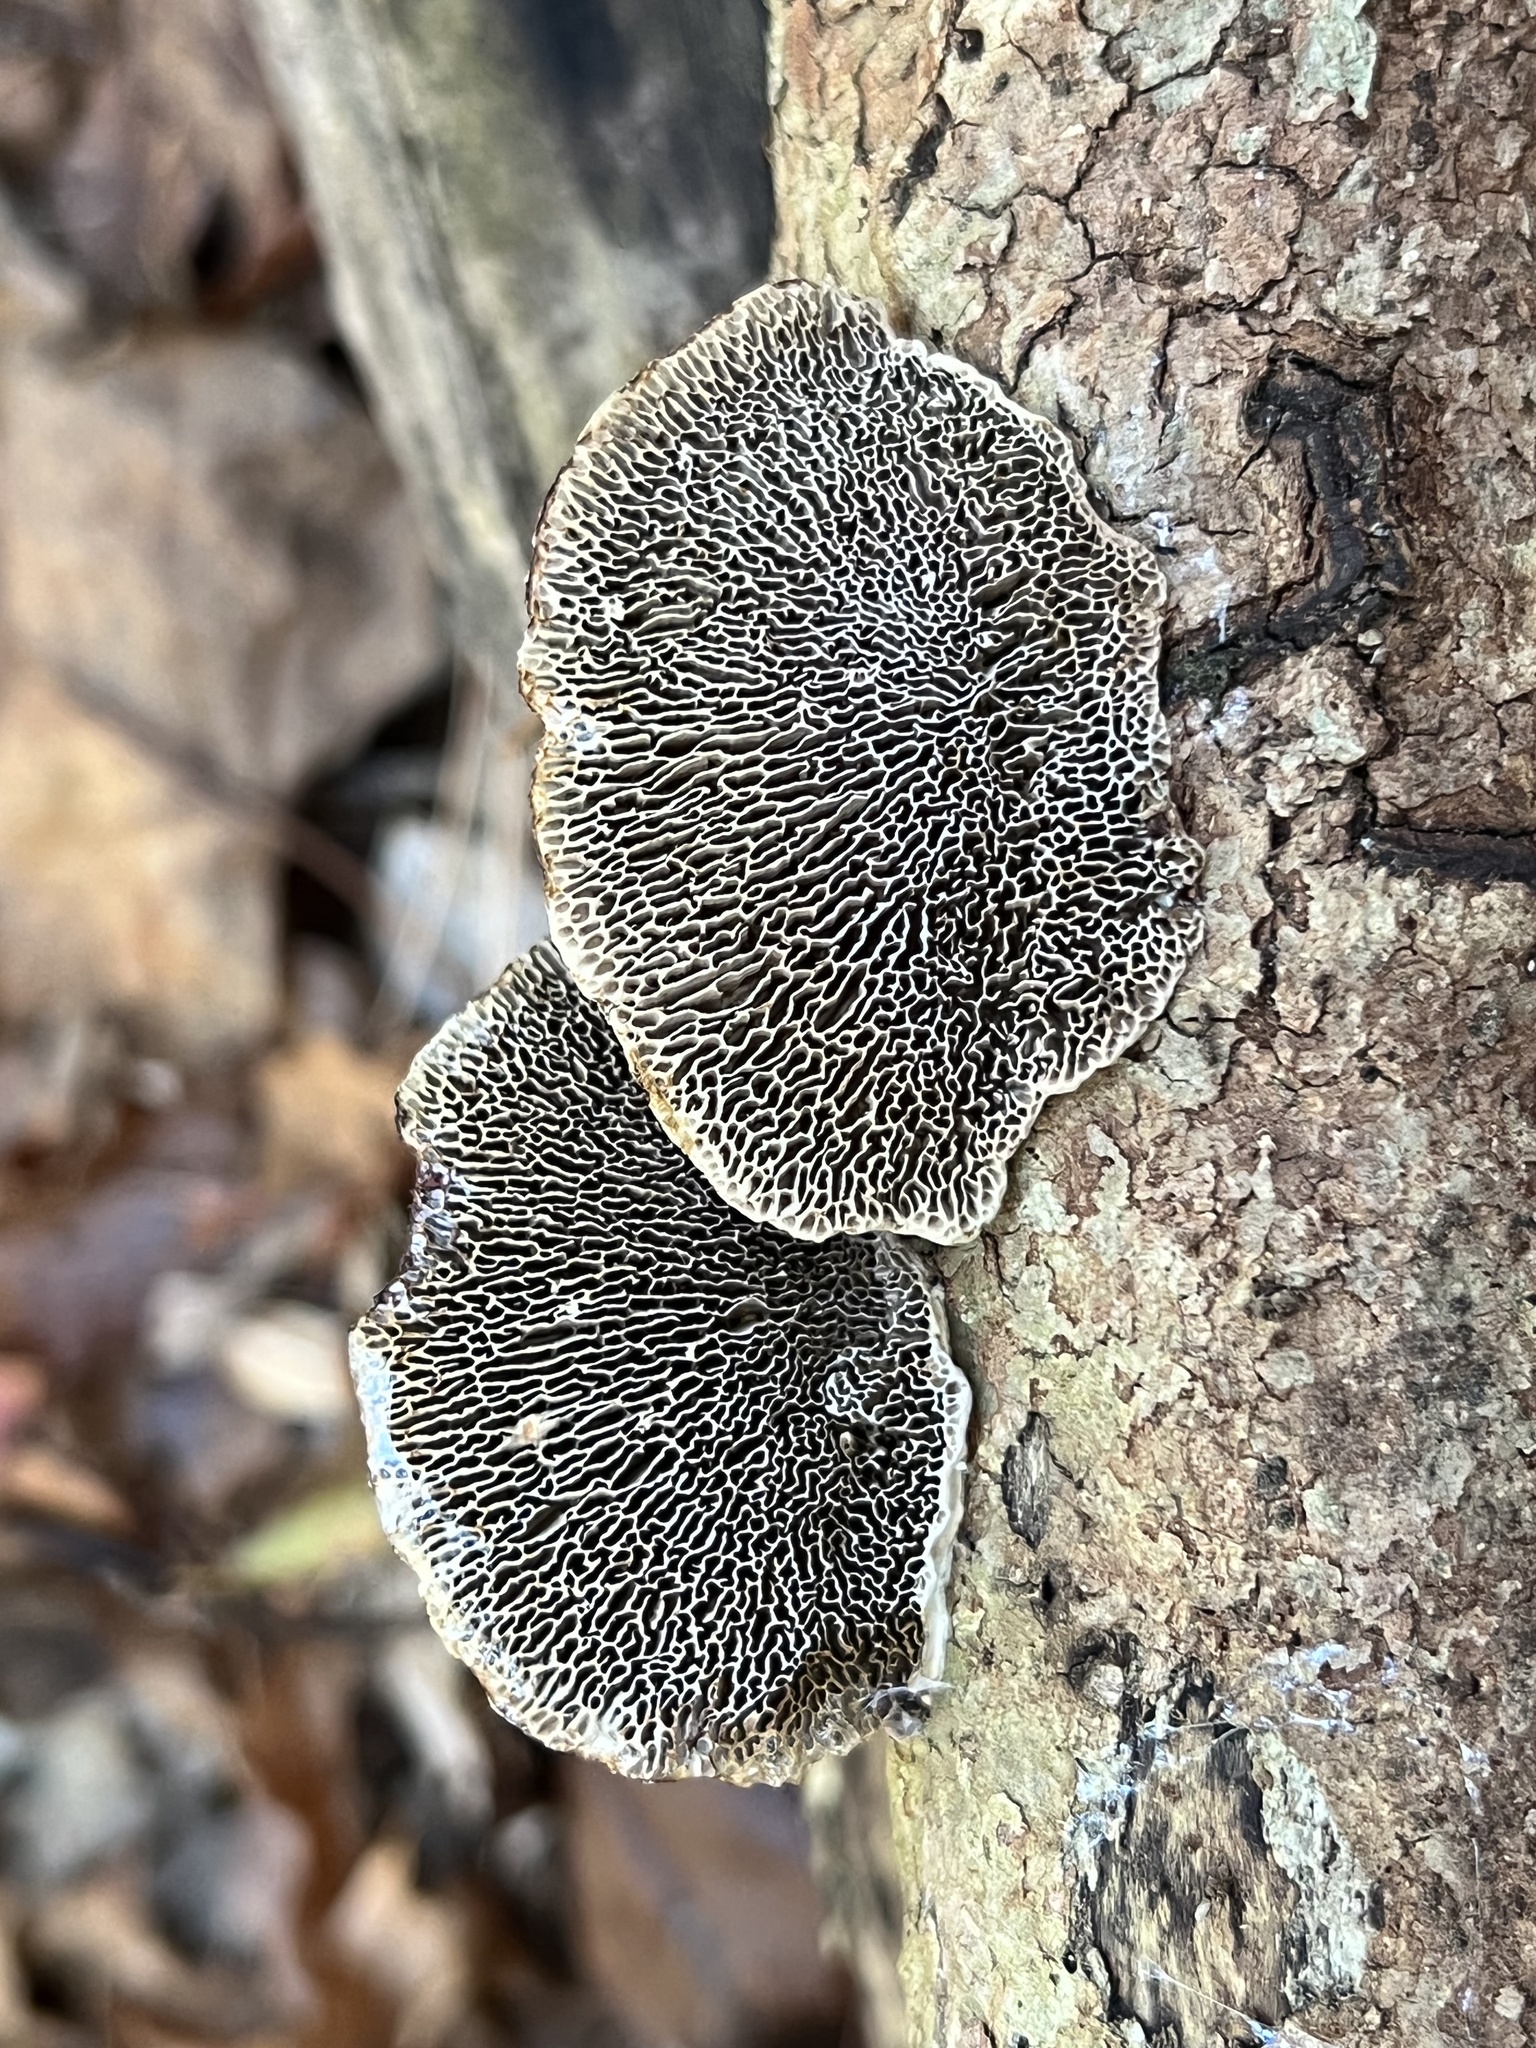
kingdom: Fungi
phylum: Basidiomycota
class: Agaricomycetes
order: Polyporales
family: Polyporaceae
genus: Daedaleopsis
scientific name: Daedaleopsis confragosa
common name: Blushing bracket
